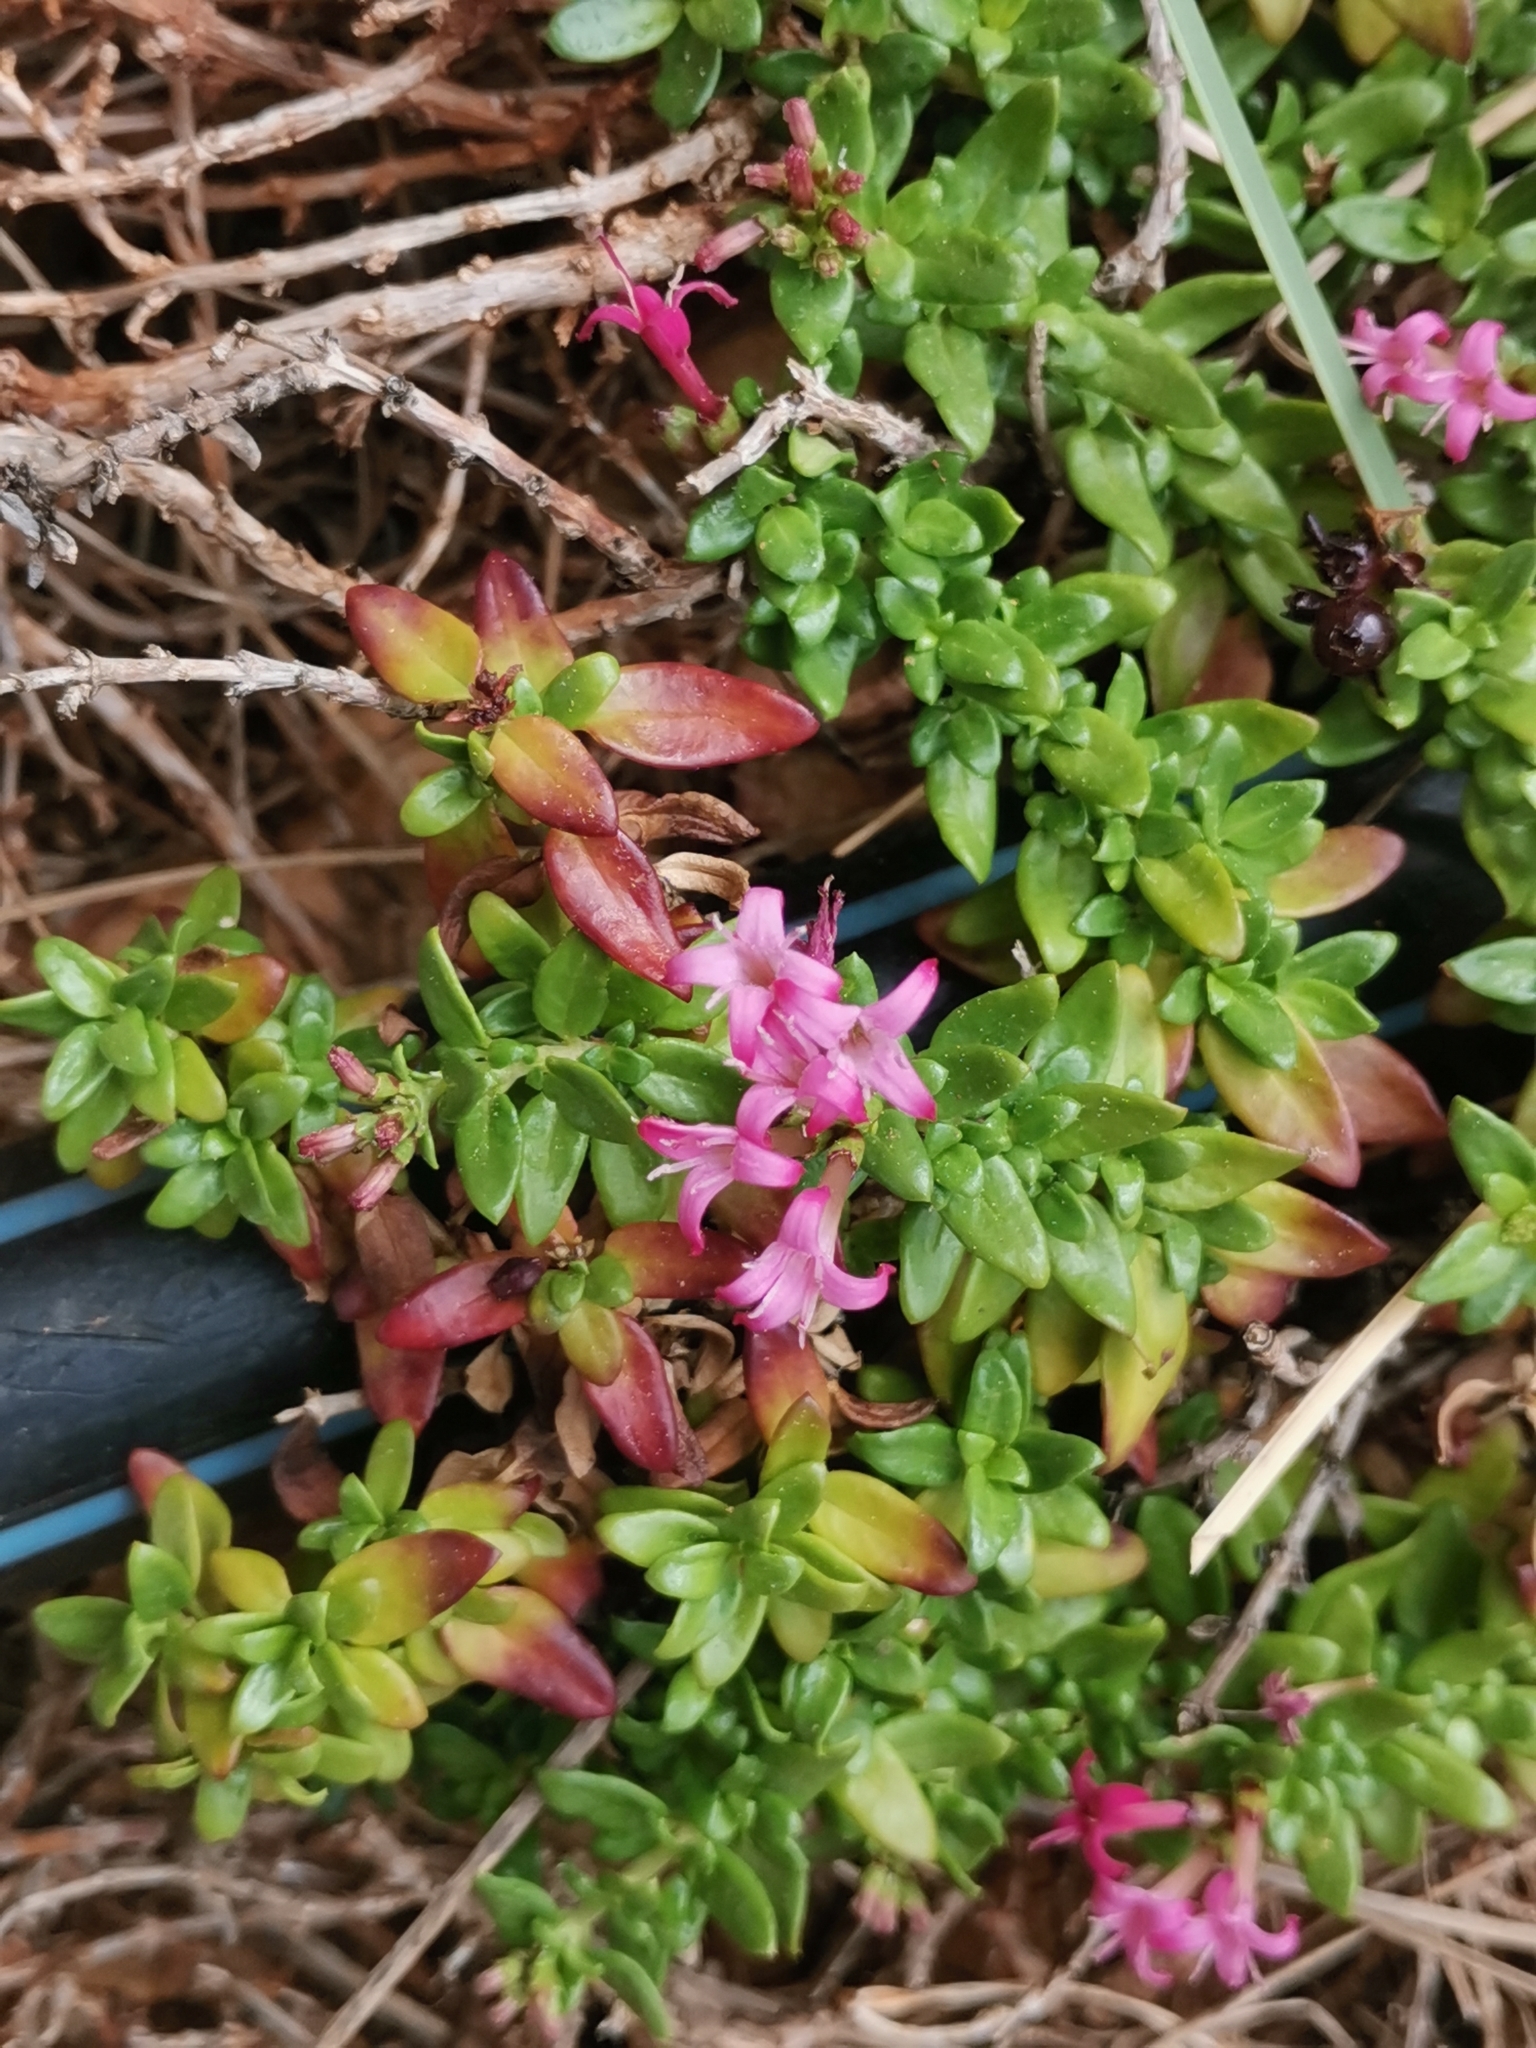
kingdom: Plantae
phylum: Tracheophyta
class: Magnoliopsida
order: Gentianales
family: Rubiaceae
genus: Plocama
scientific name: Plocama calabrica
